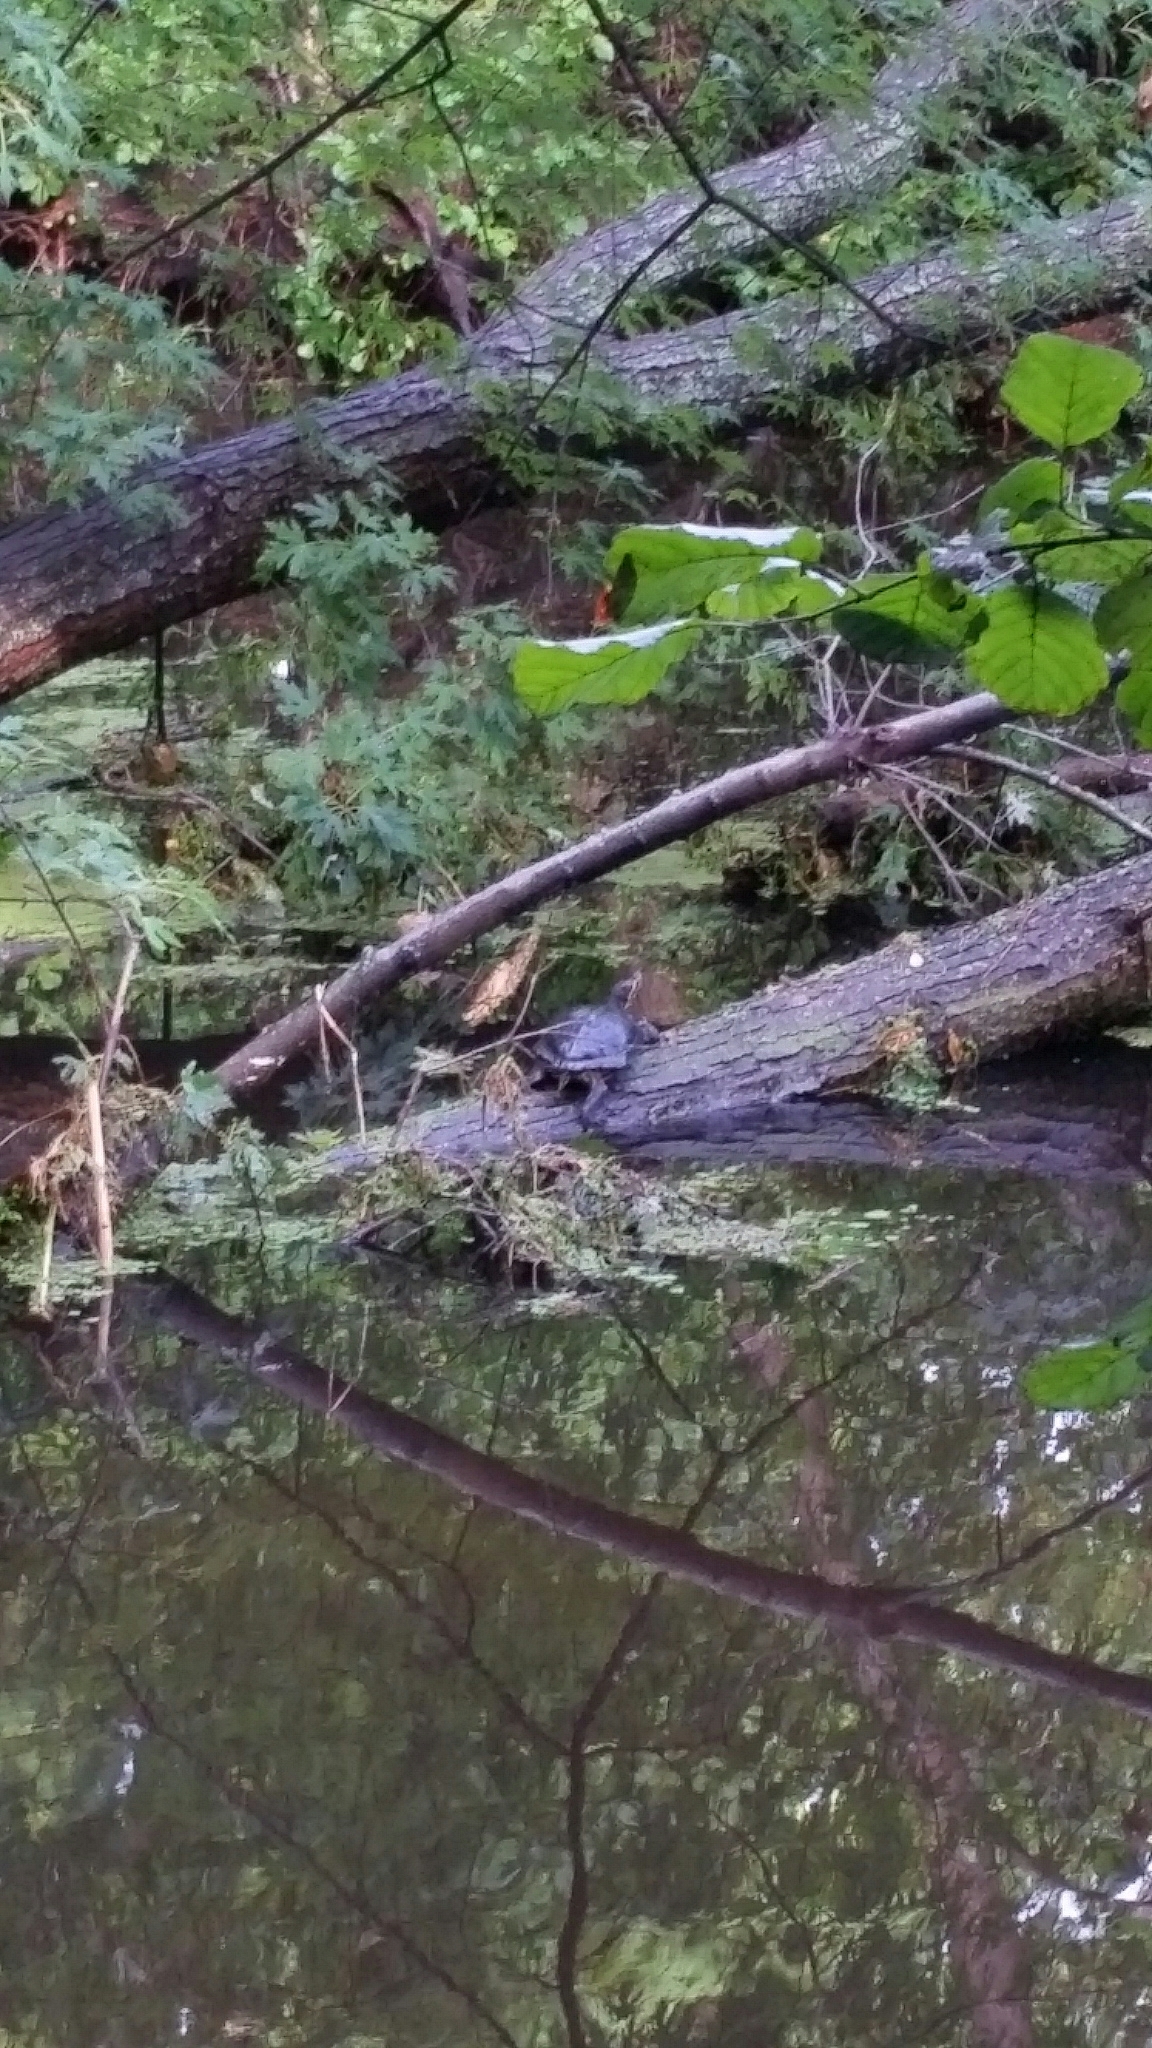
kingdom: Animalia
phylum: Chordata
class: Testudines
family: Emydidae
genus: Trachemys
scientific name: Trachemys scripta
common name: Slider
